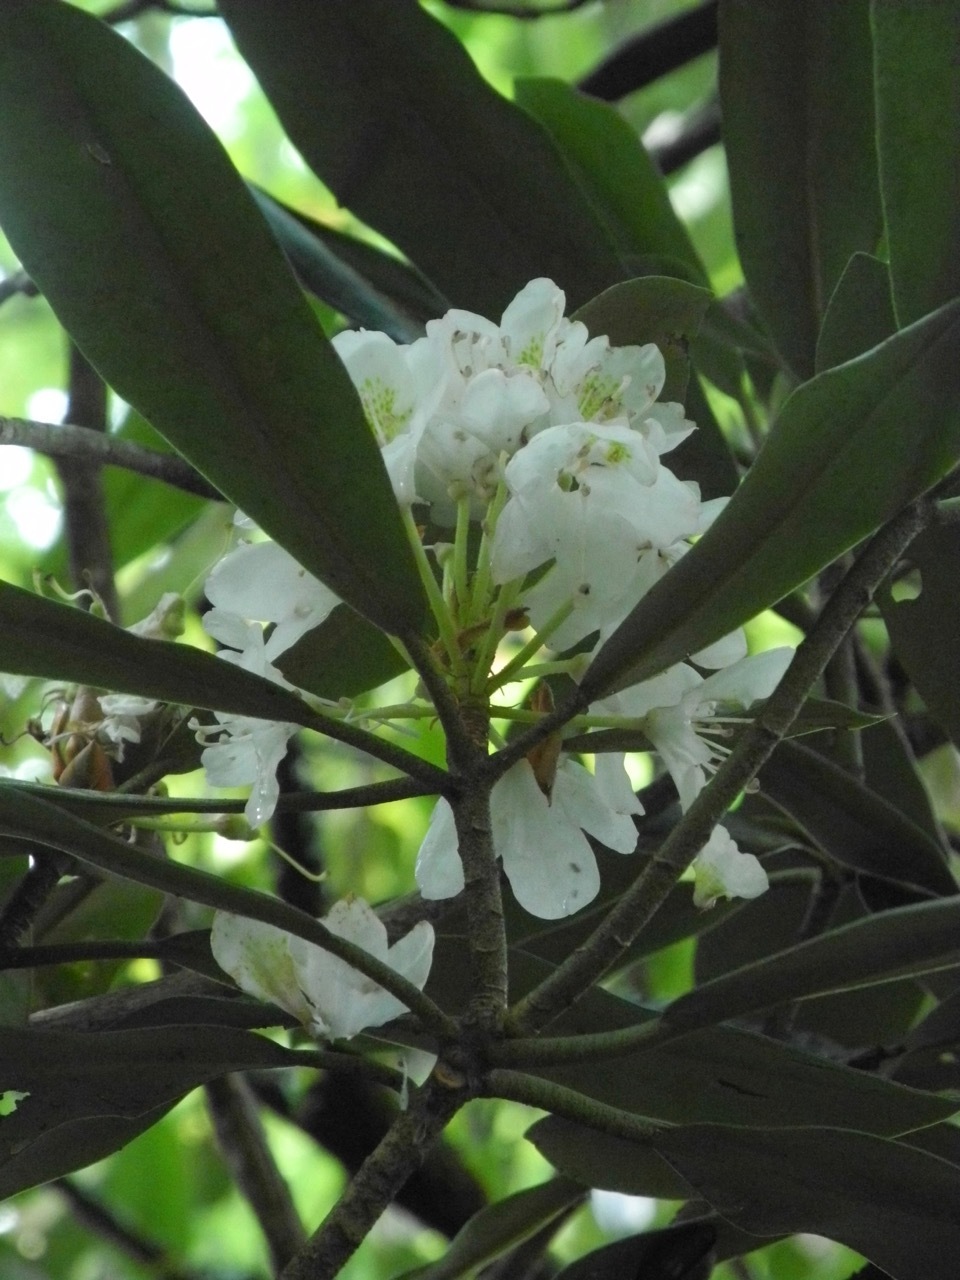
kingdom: Plantae
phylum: Tracheophyta
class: Magnoliopsida
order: Ericales
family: Ericaceae
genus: Rhododendron
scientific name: Rhododendron maximum
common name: Great rhododendron
